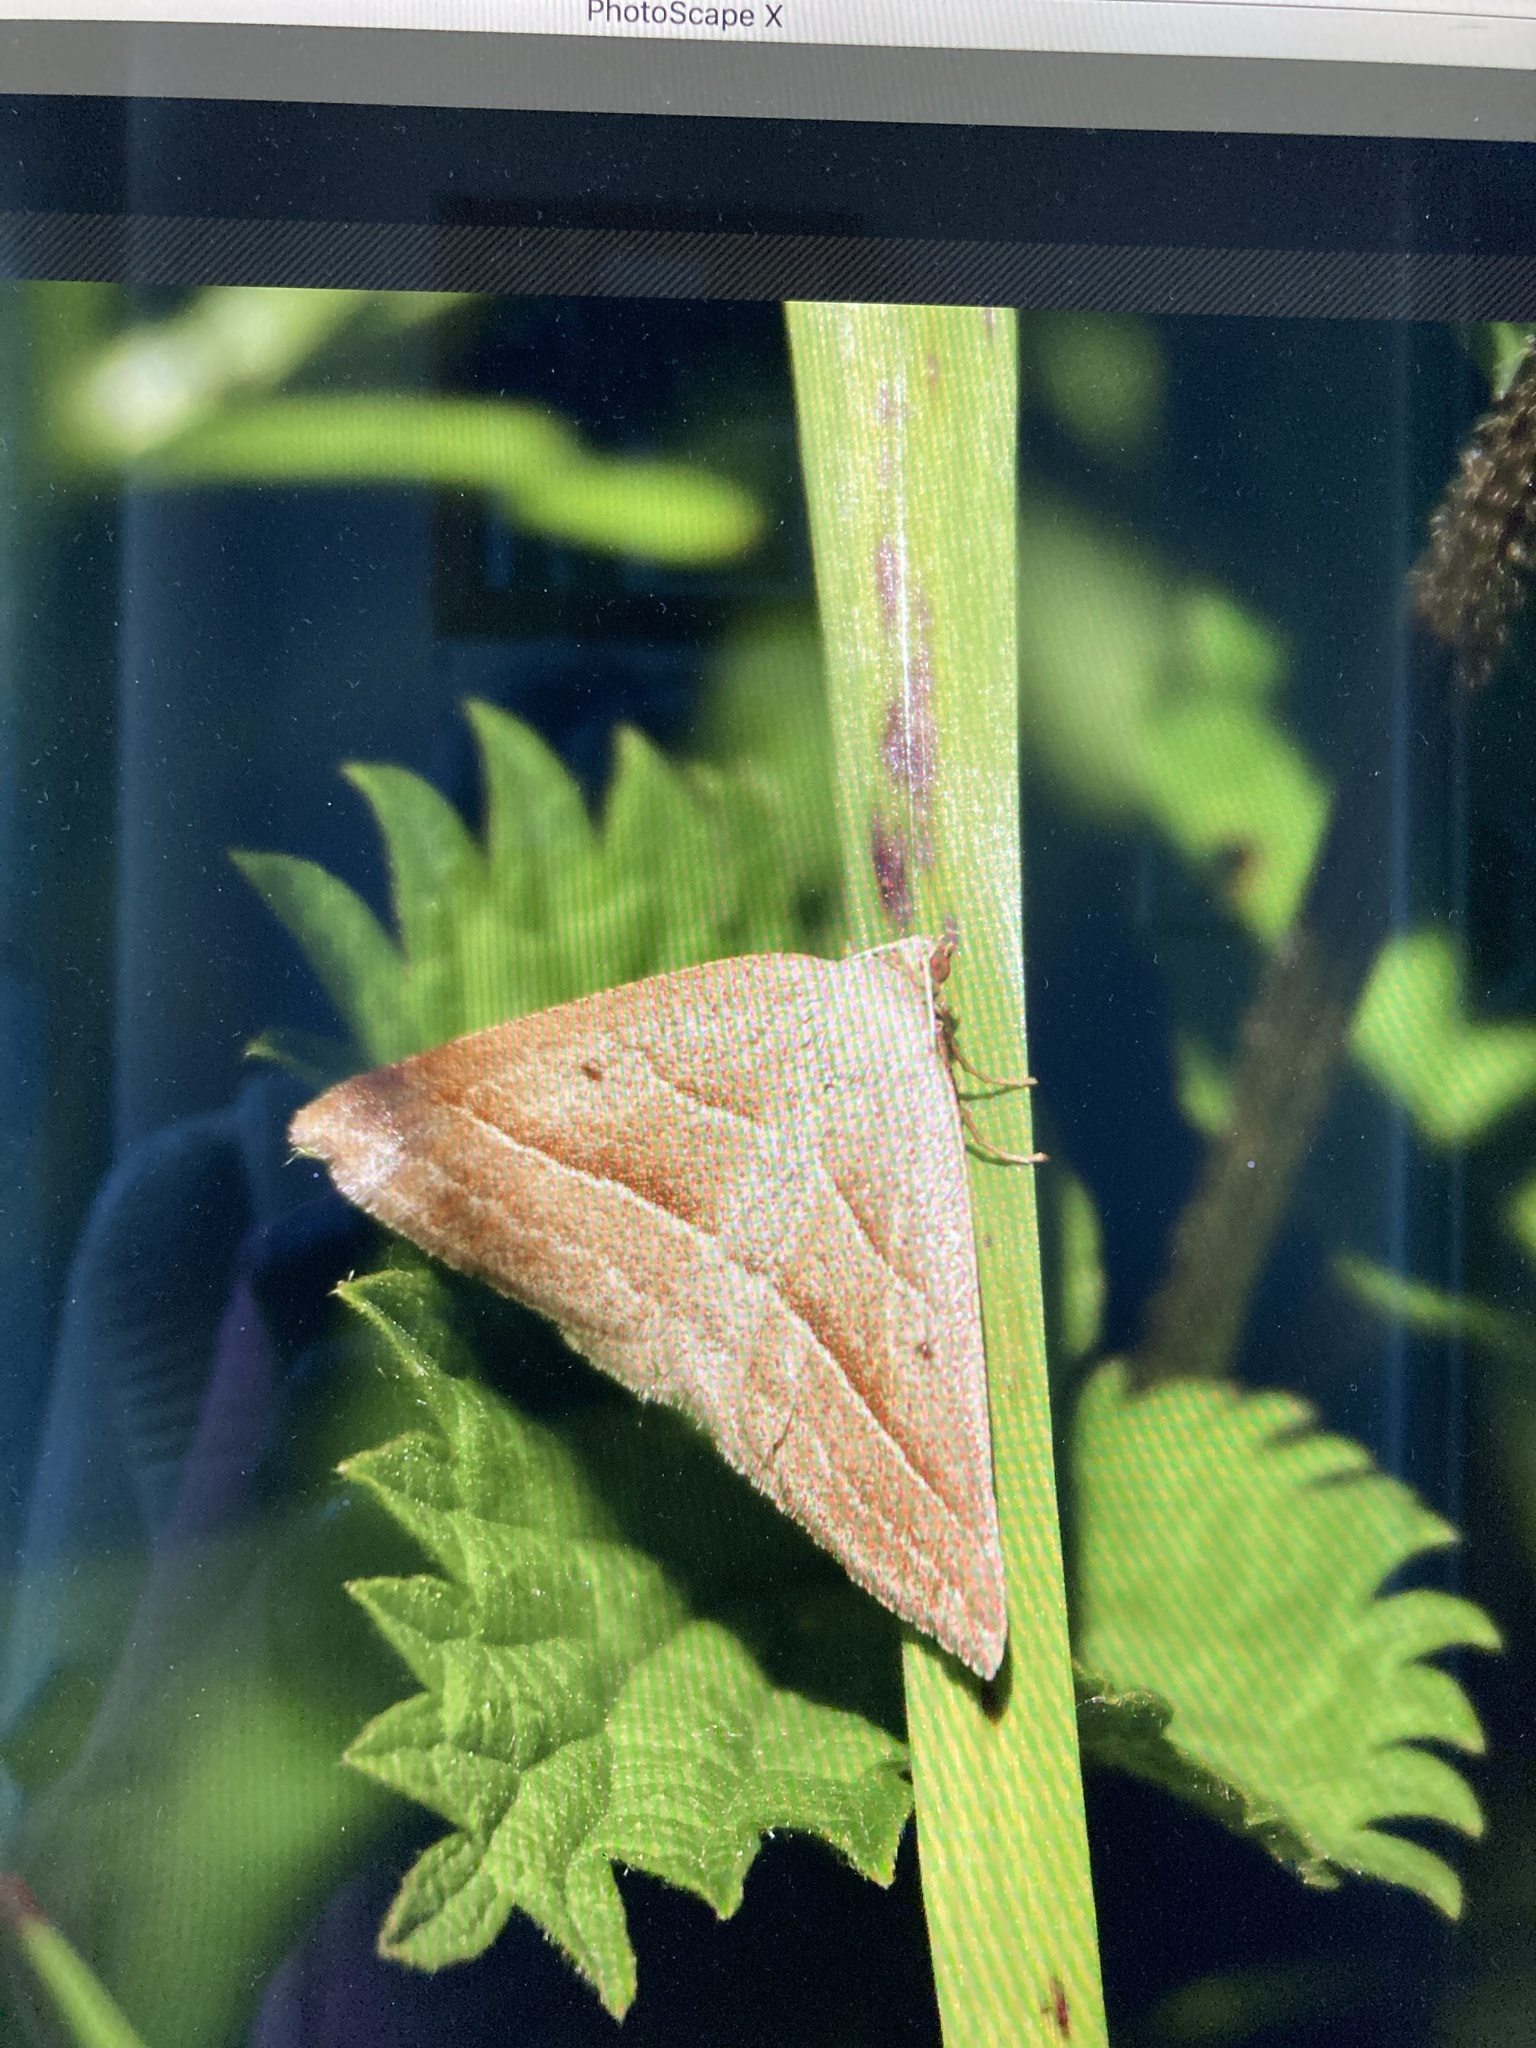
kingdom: Animalia
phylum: Arthropoda
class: Insecta
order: Lepidoptera
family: Pterophoridae
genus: Pterophorus
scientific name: Pterophorus Petrophora chlorosata
